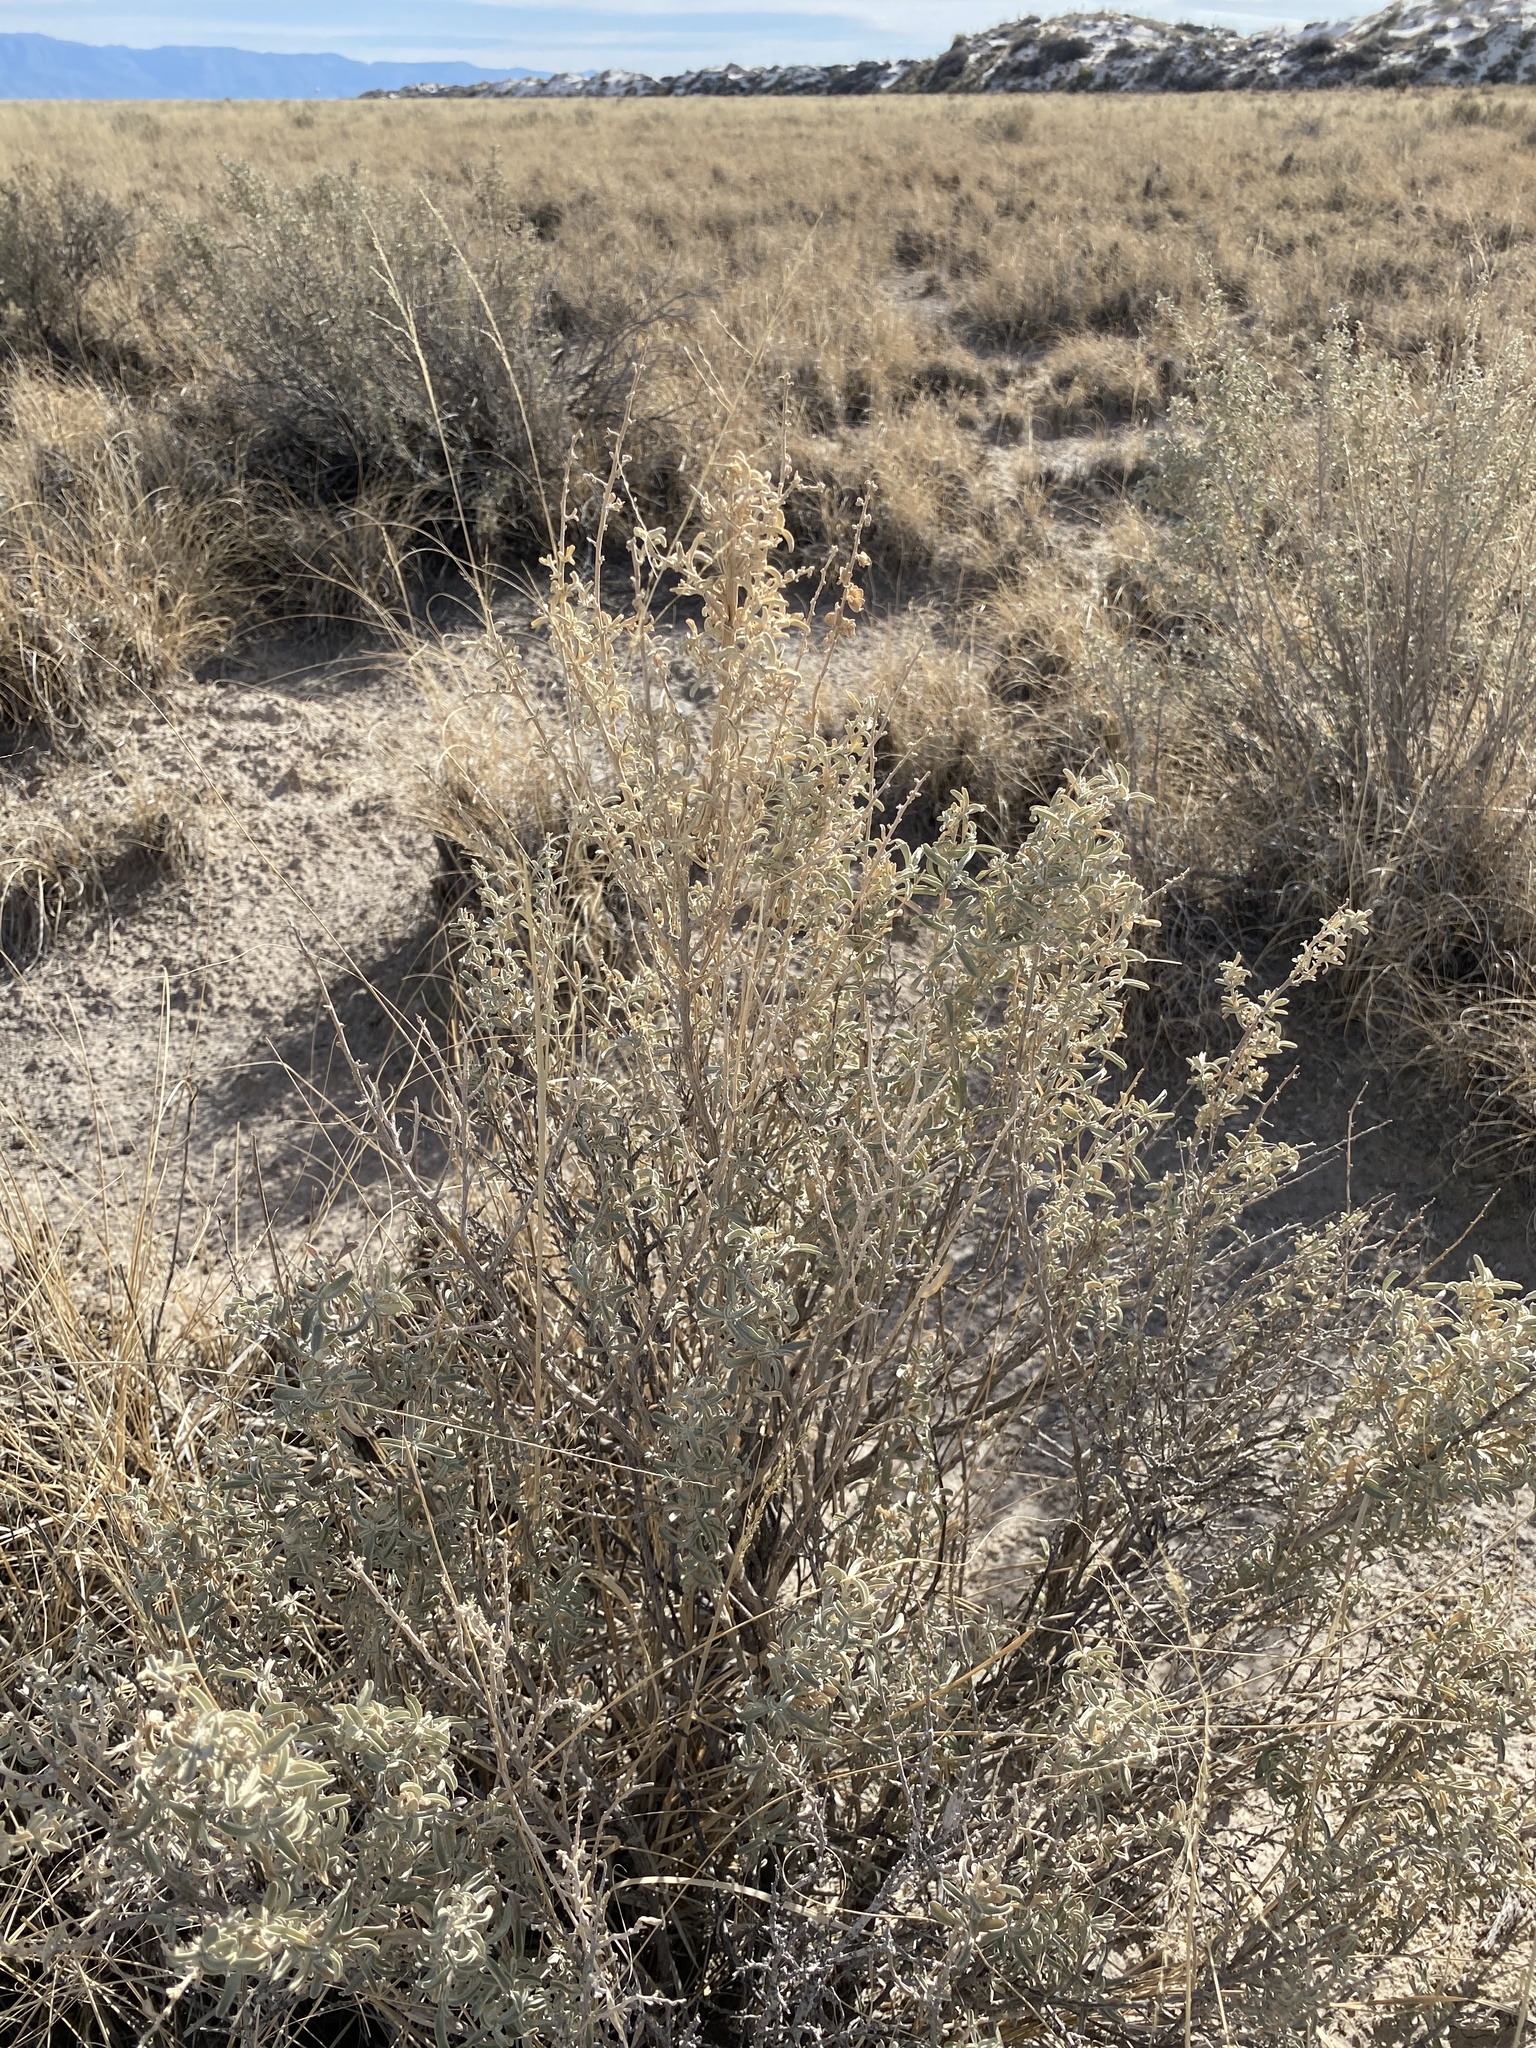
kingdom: Plantae
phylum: Tracheophyta
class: Magnoliopsida
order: Caryophyllales
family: Amaranthaceae
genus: Atriplex
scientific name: Atriplex canescens
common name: Four-wing saltbush
